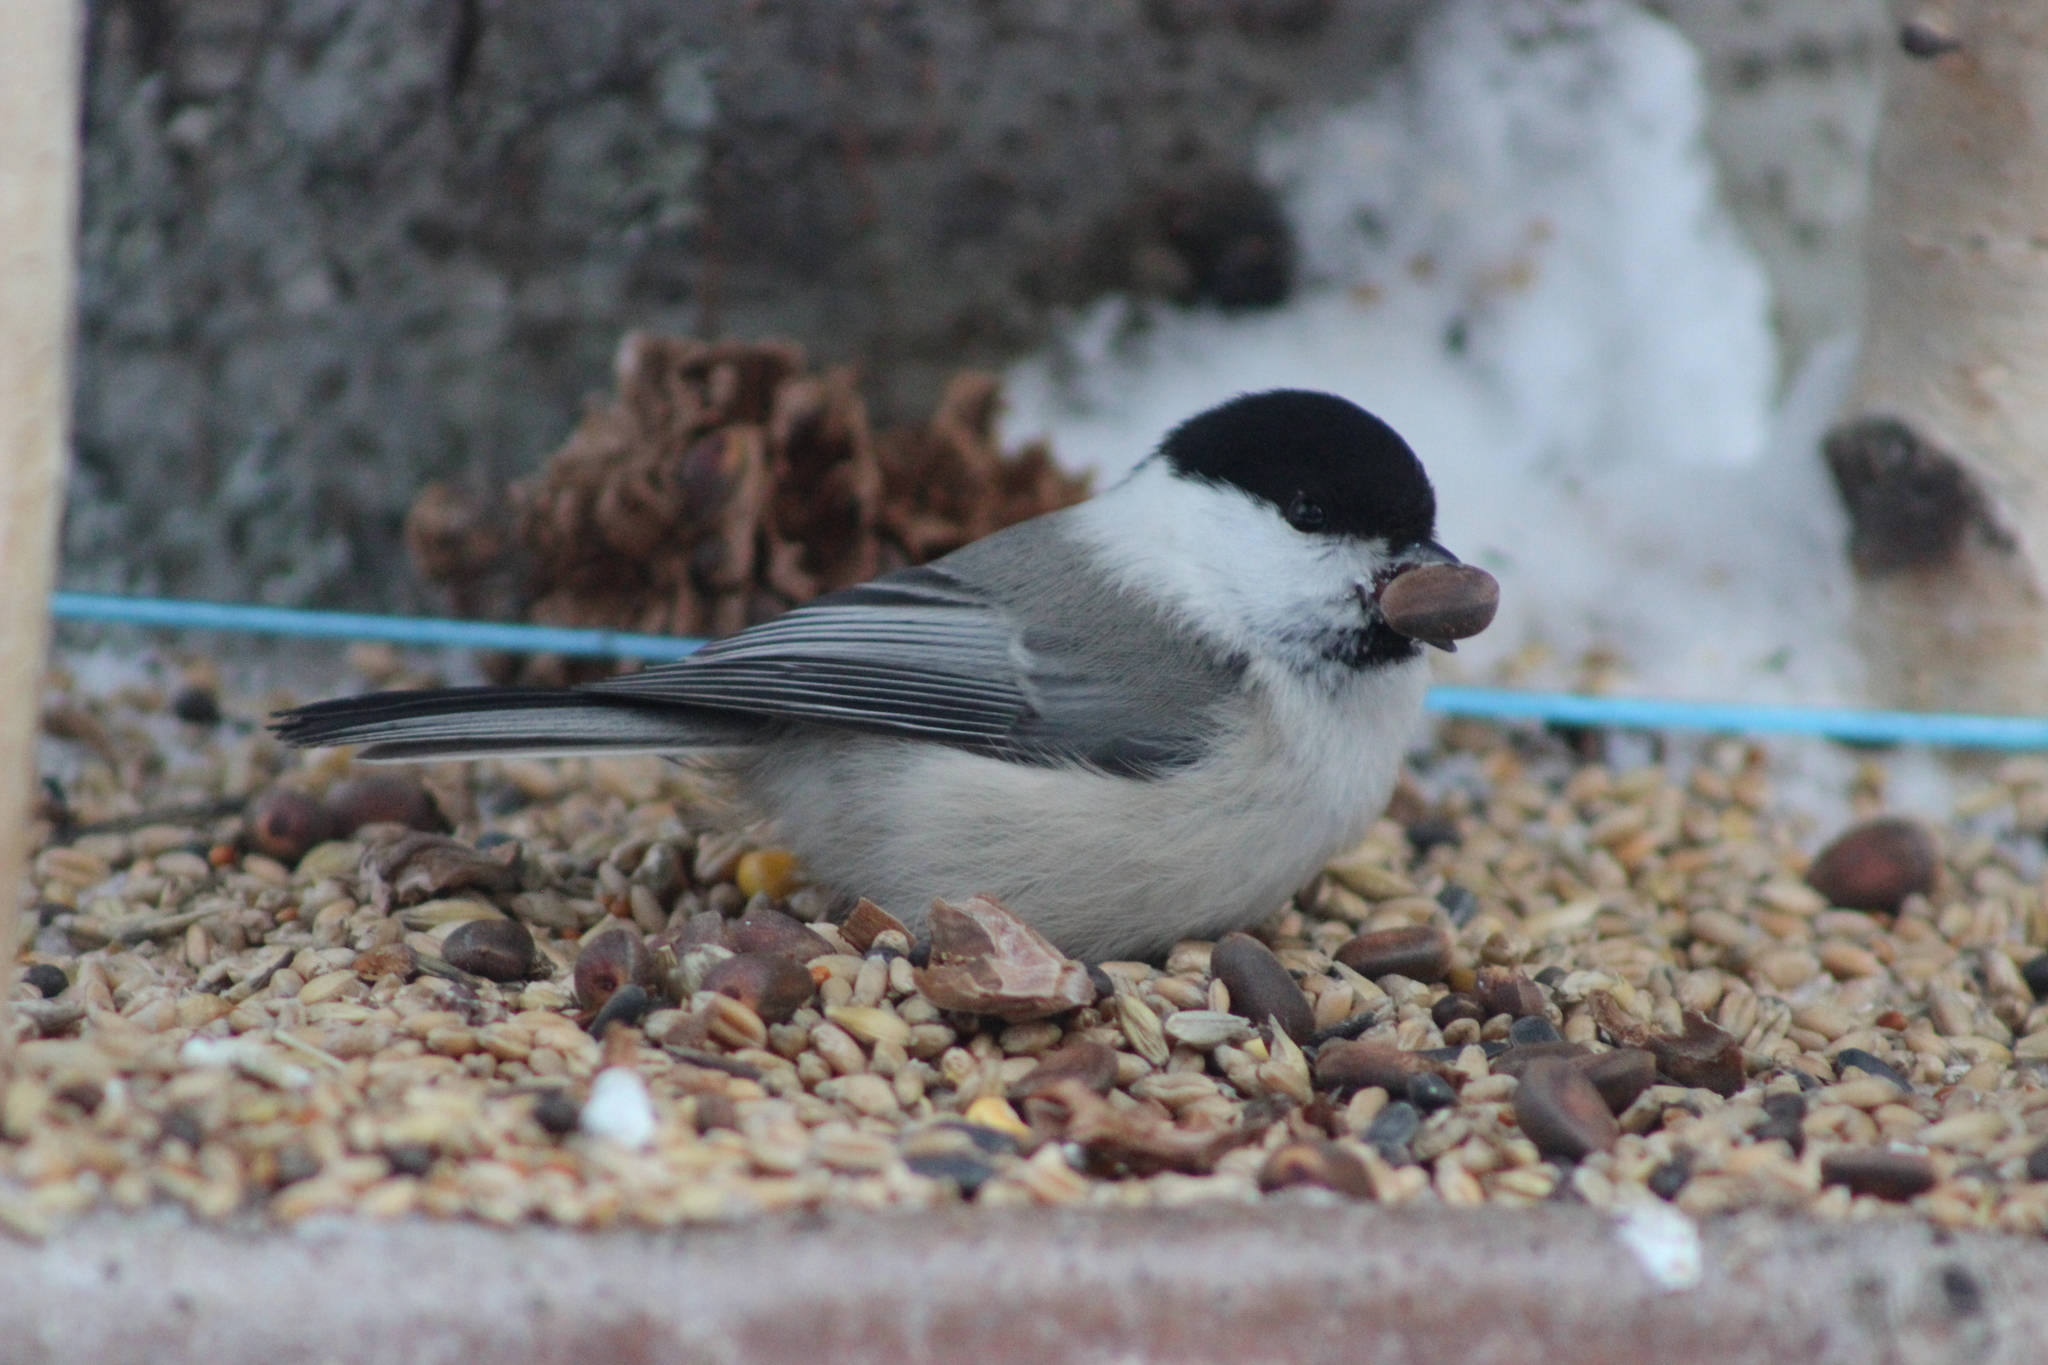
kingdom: Animalia
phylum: Chordata
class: Aves
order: Passeriformes
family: Paridae
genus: Poecile
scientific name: Poecile montanus
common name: Willow tit
